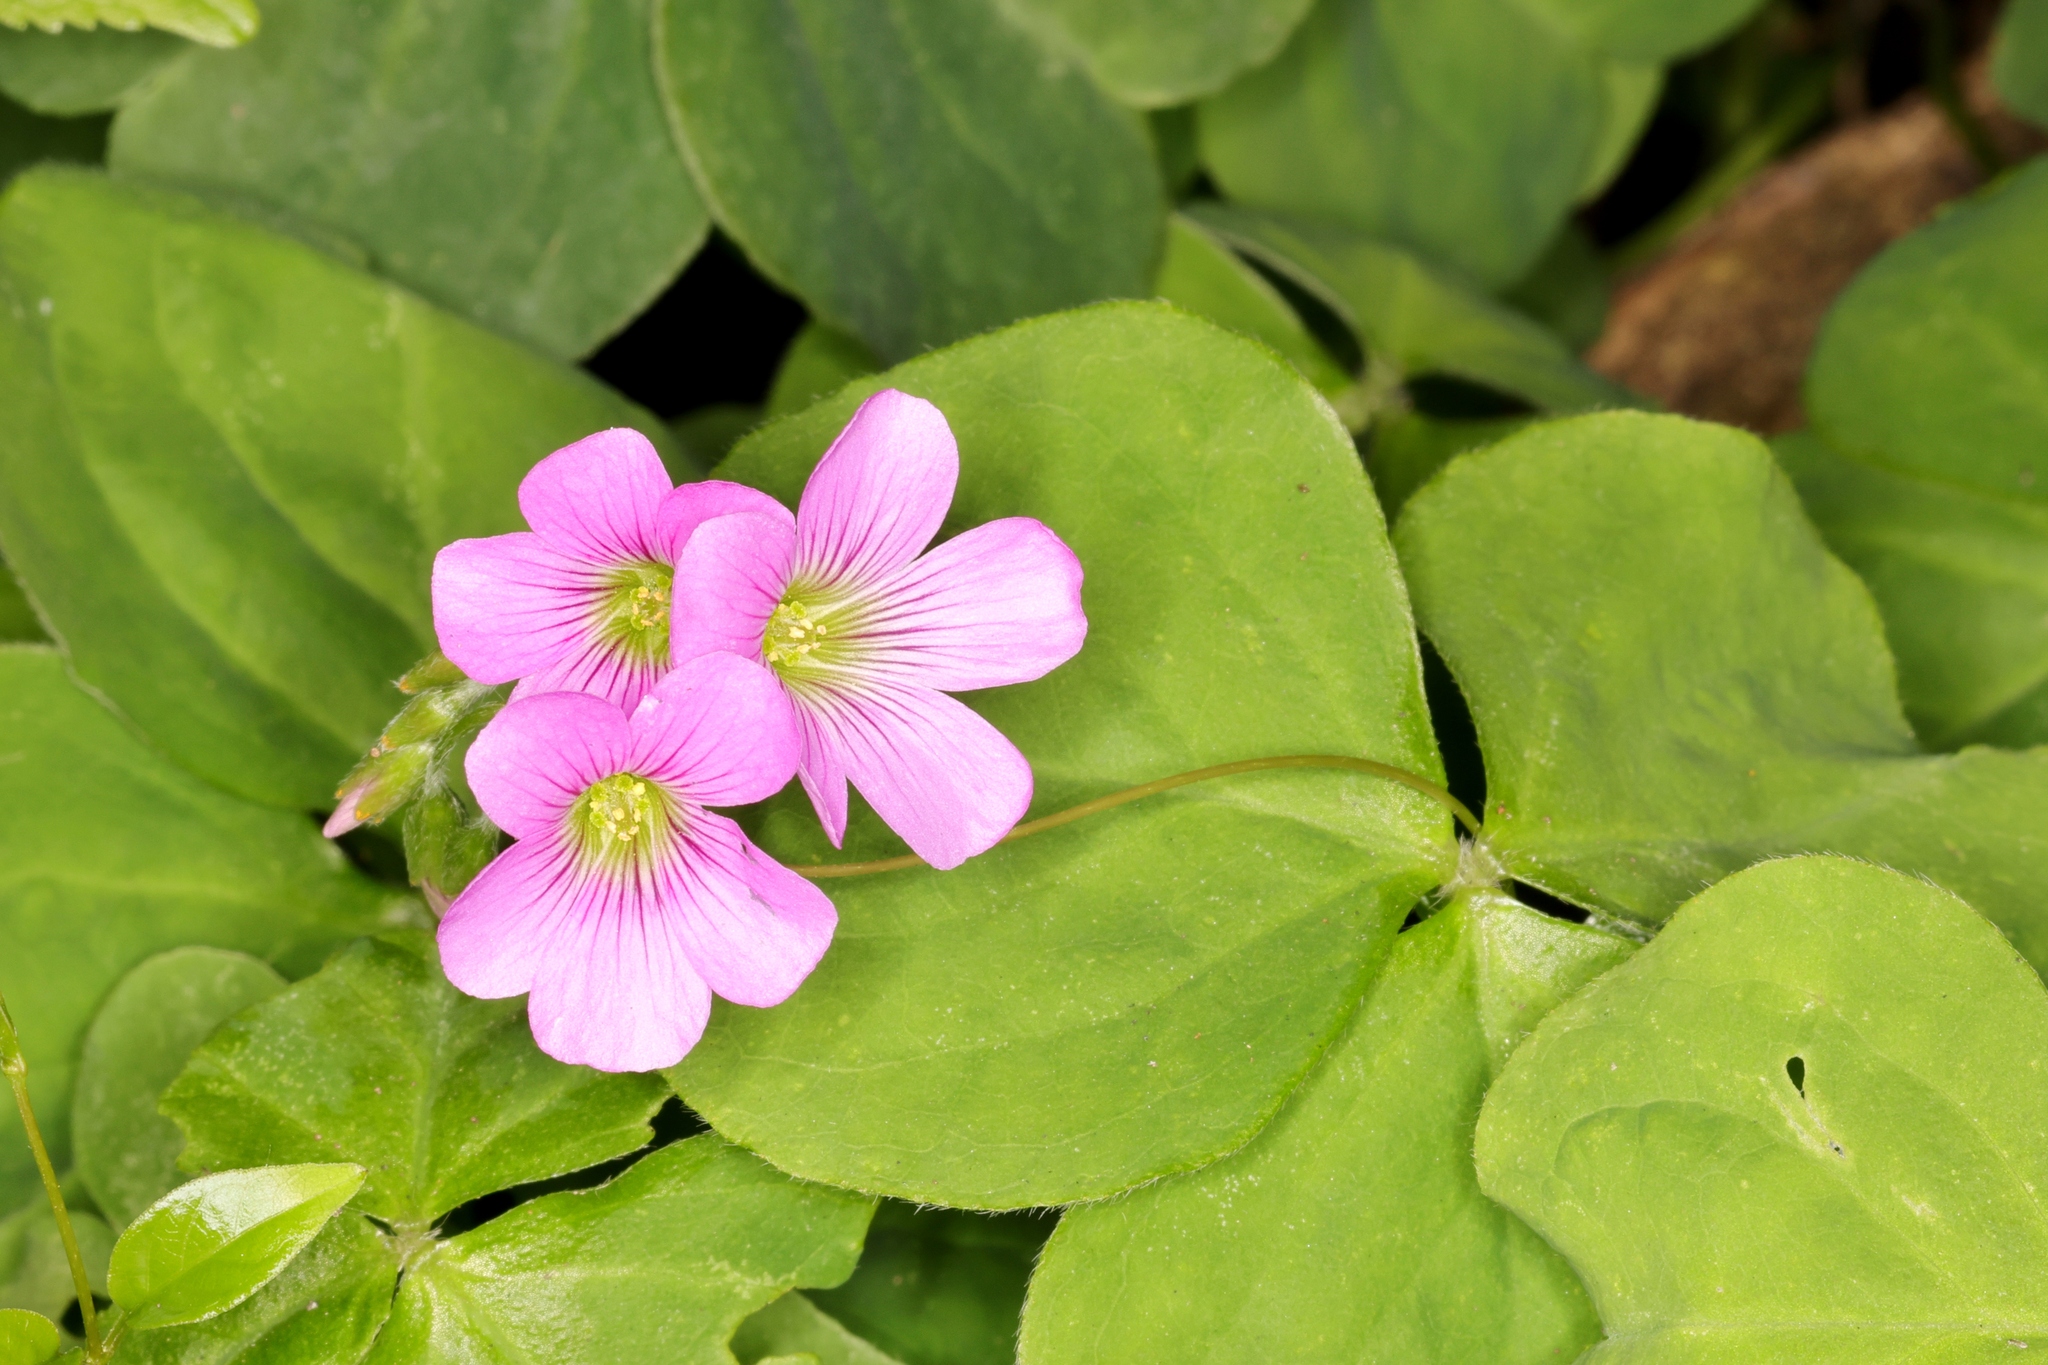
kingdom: Plantae
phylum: Tracheophyta
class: Magnoliopsida
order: Oxalidales
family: Oxalidaceae
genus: Oxalis
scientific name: Oxalis debilis
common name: Large-flowered pink-sorrel
